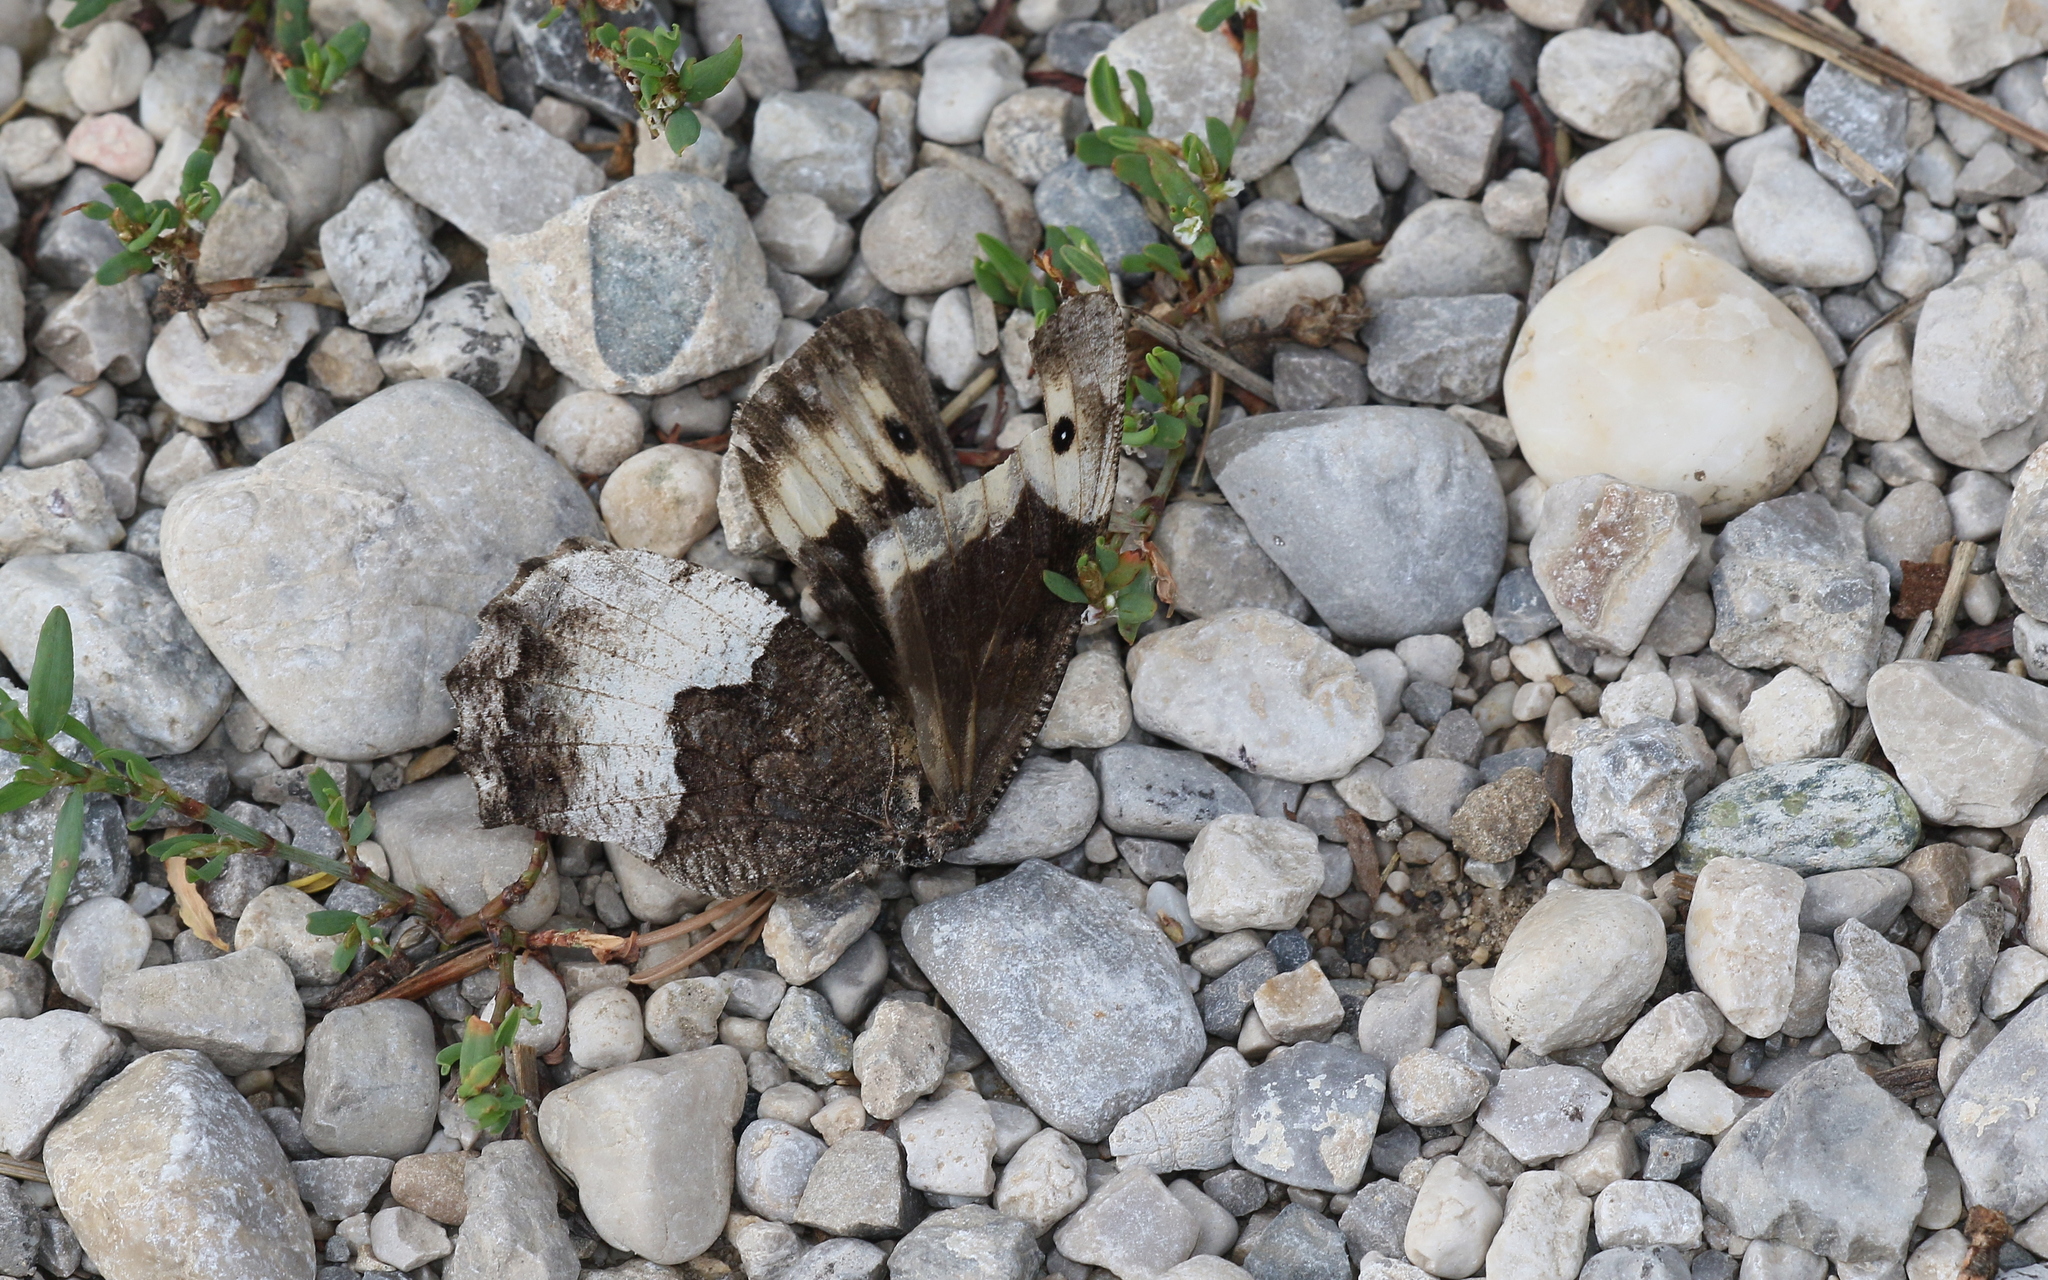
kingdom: Animalia
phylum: Arthropoda
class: Insecta
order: Lepidoptera
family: Nymphalidae
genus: Hipparchia
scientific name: Hipparchia hermione
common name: Rock grayling
